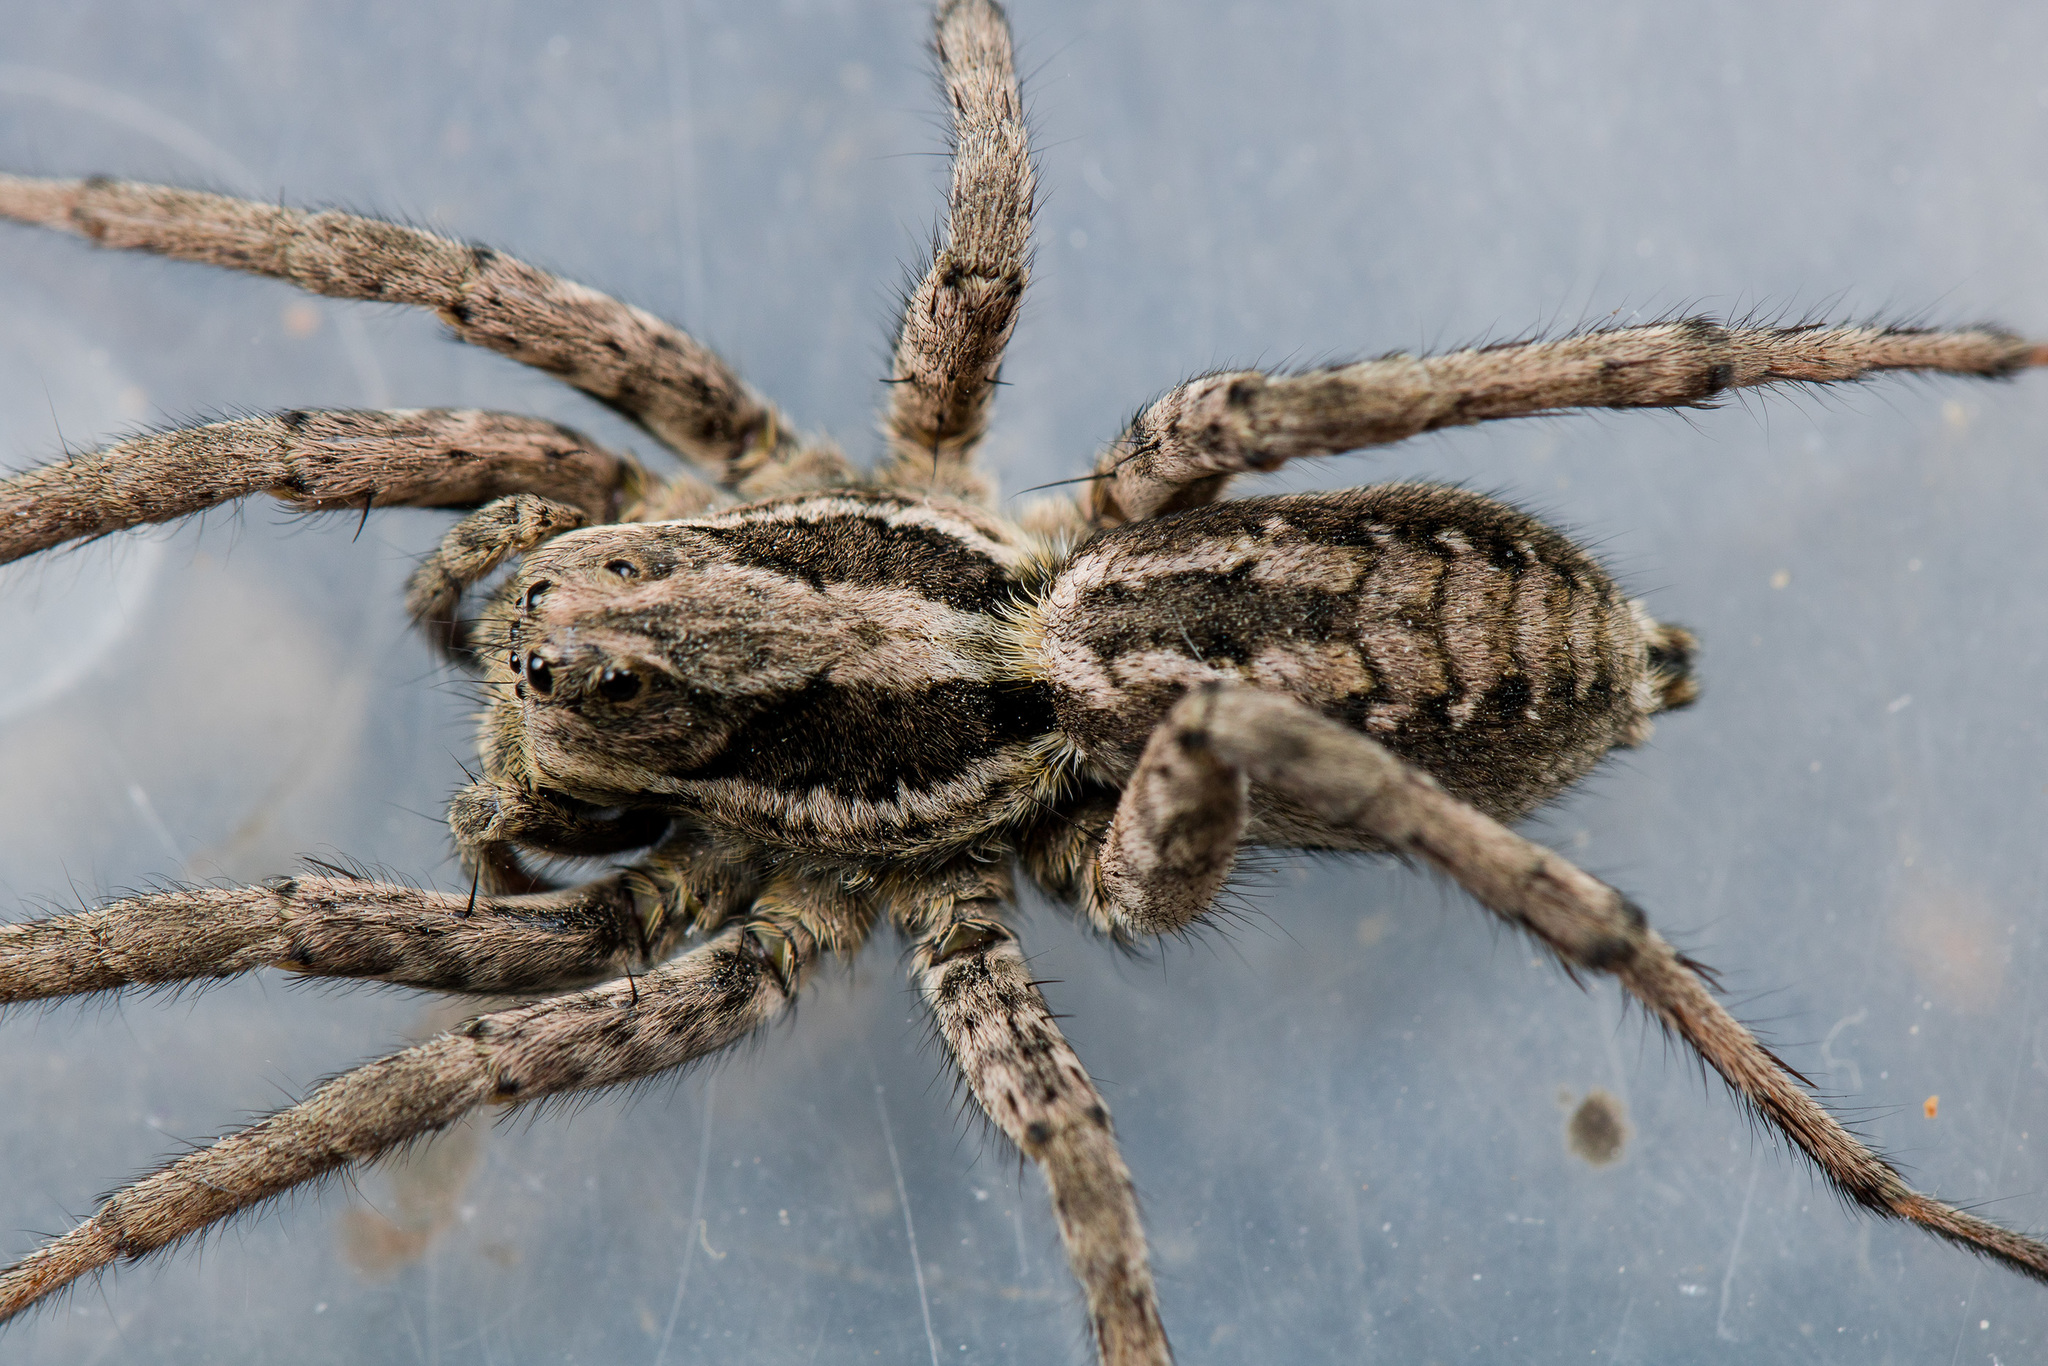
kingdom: Animalia
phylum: Arthropoda
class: Arachnida
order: Araneae
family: Lycosidae
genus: Alopecosa
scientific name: Alopecosa fedotovi
